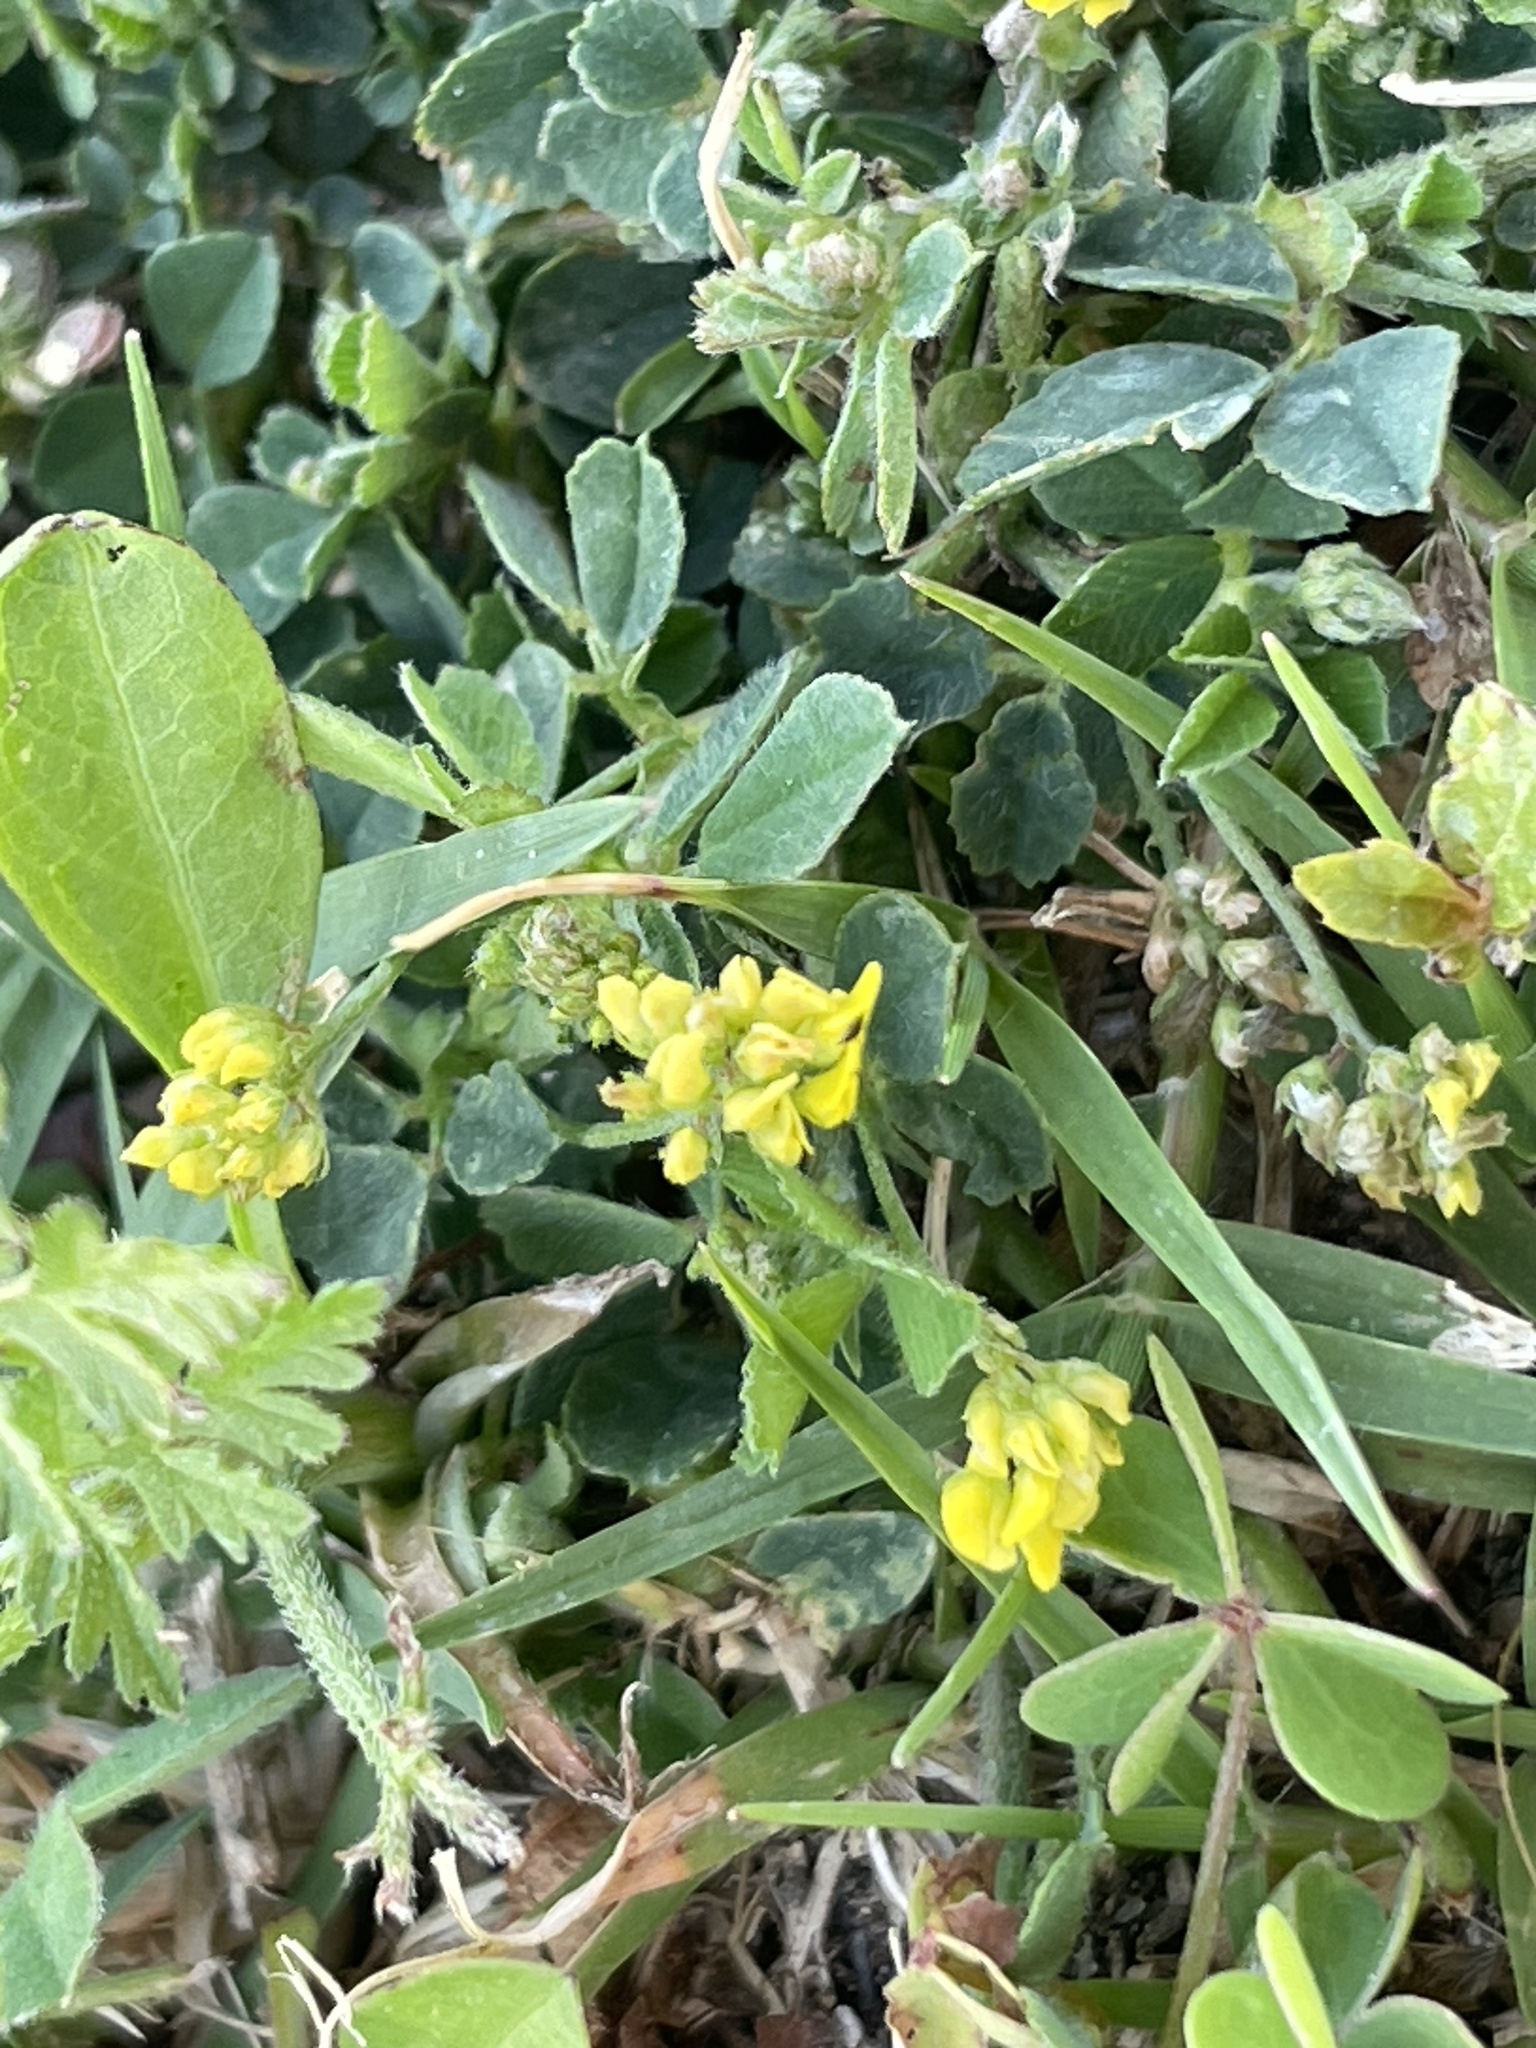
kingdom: Plantae
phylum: Tracheophyta
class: Magnoliopsida
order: Fabales
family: Fabaceae
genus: Medicago
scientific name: Medicago lupulina
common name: Black medick
